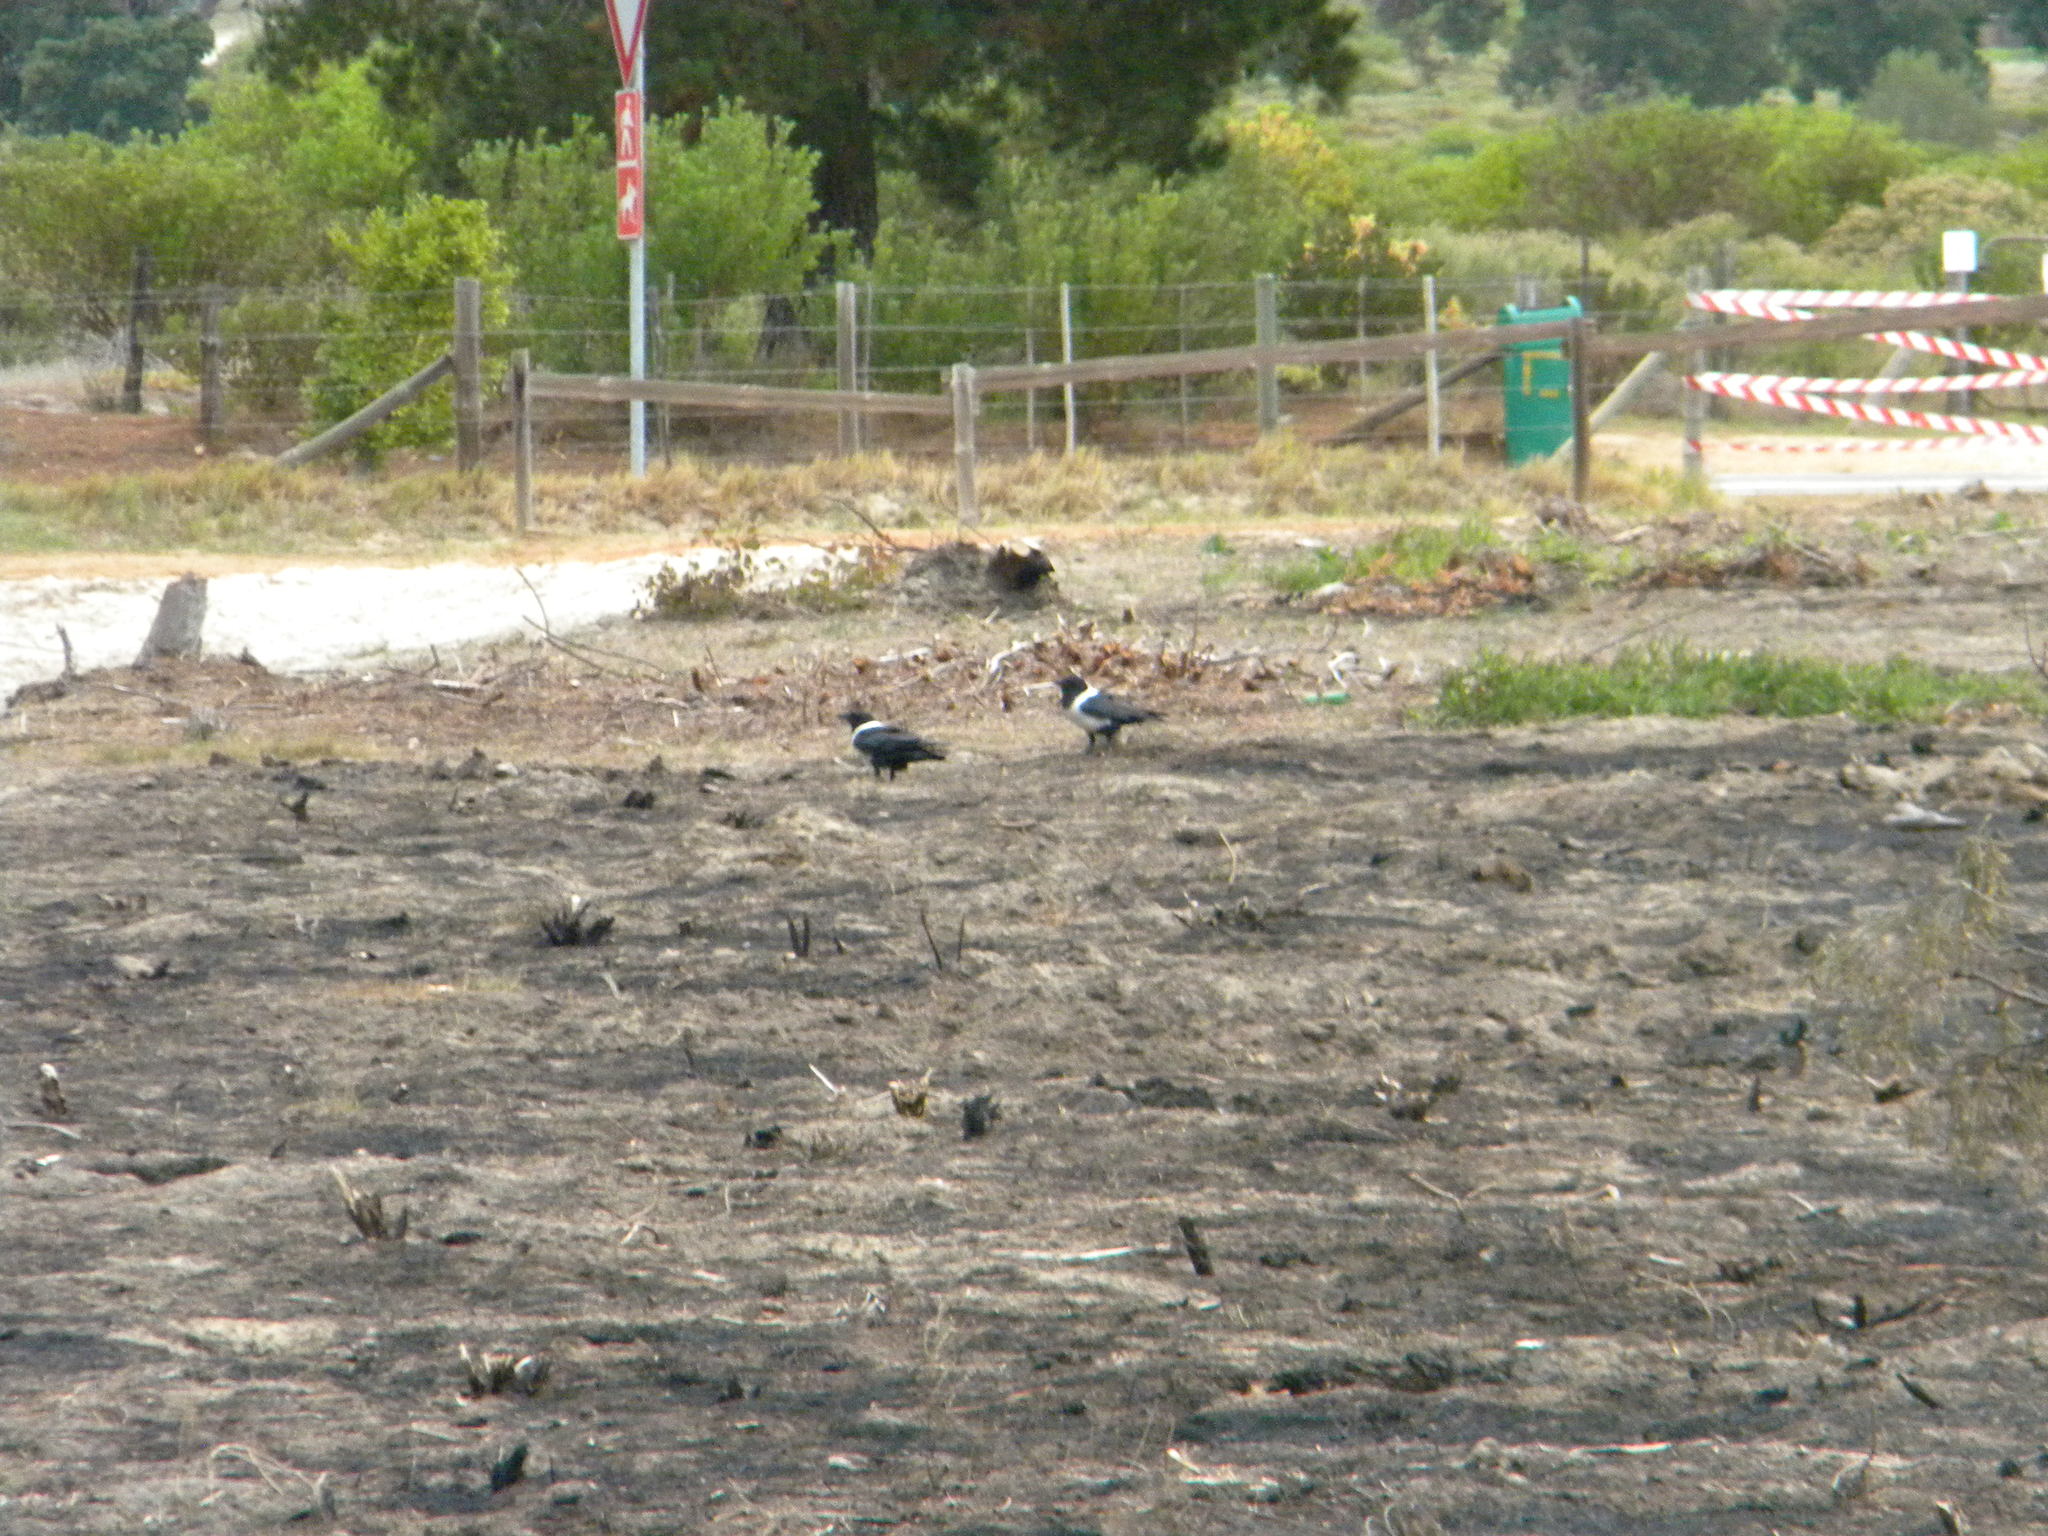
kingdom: Animalia
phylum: Chordata
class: Aves
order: Passeriformes
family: Corvidae
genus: Corvus
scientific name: Corvus albus
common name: Pied crow
